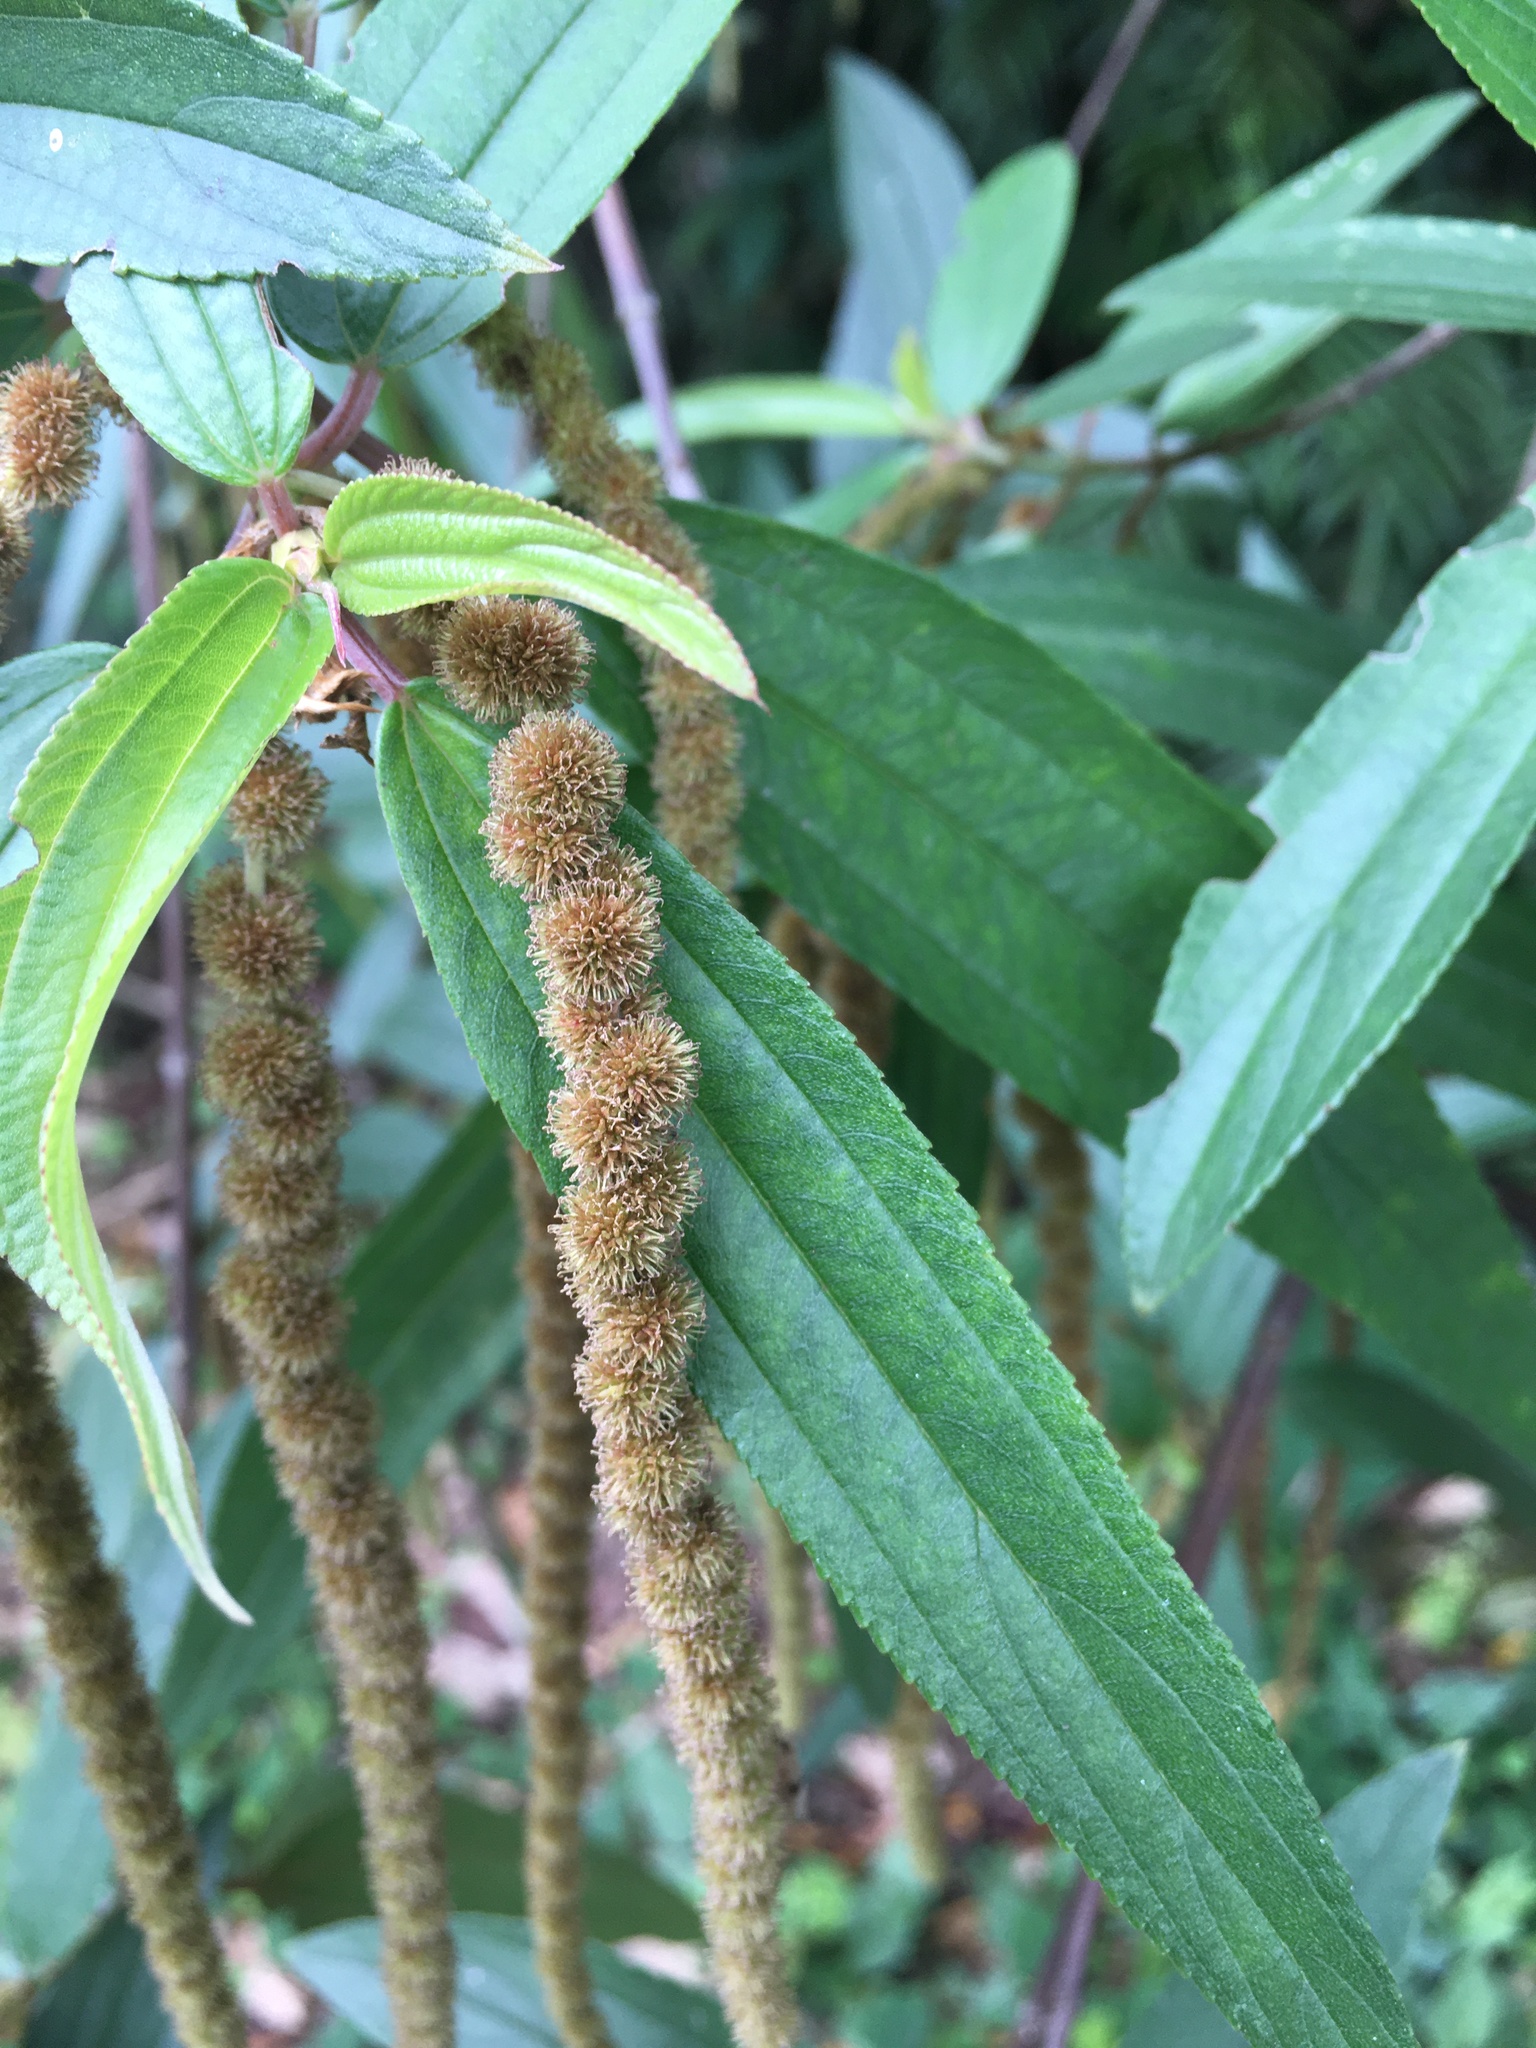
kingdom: Plantae
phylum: Tracheophyta
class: Magnoliopsida
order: Rosales
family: Urticaceae
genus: Boehmeria
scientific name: Boehmeria densiflora
